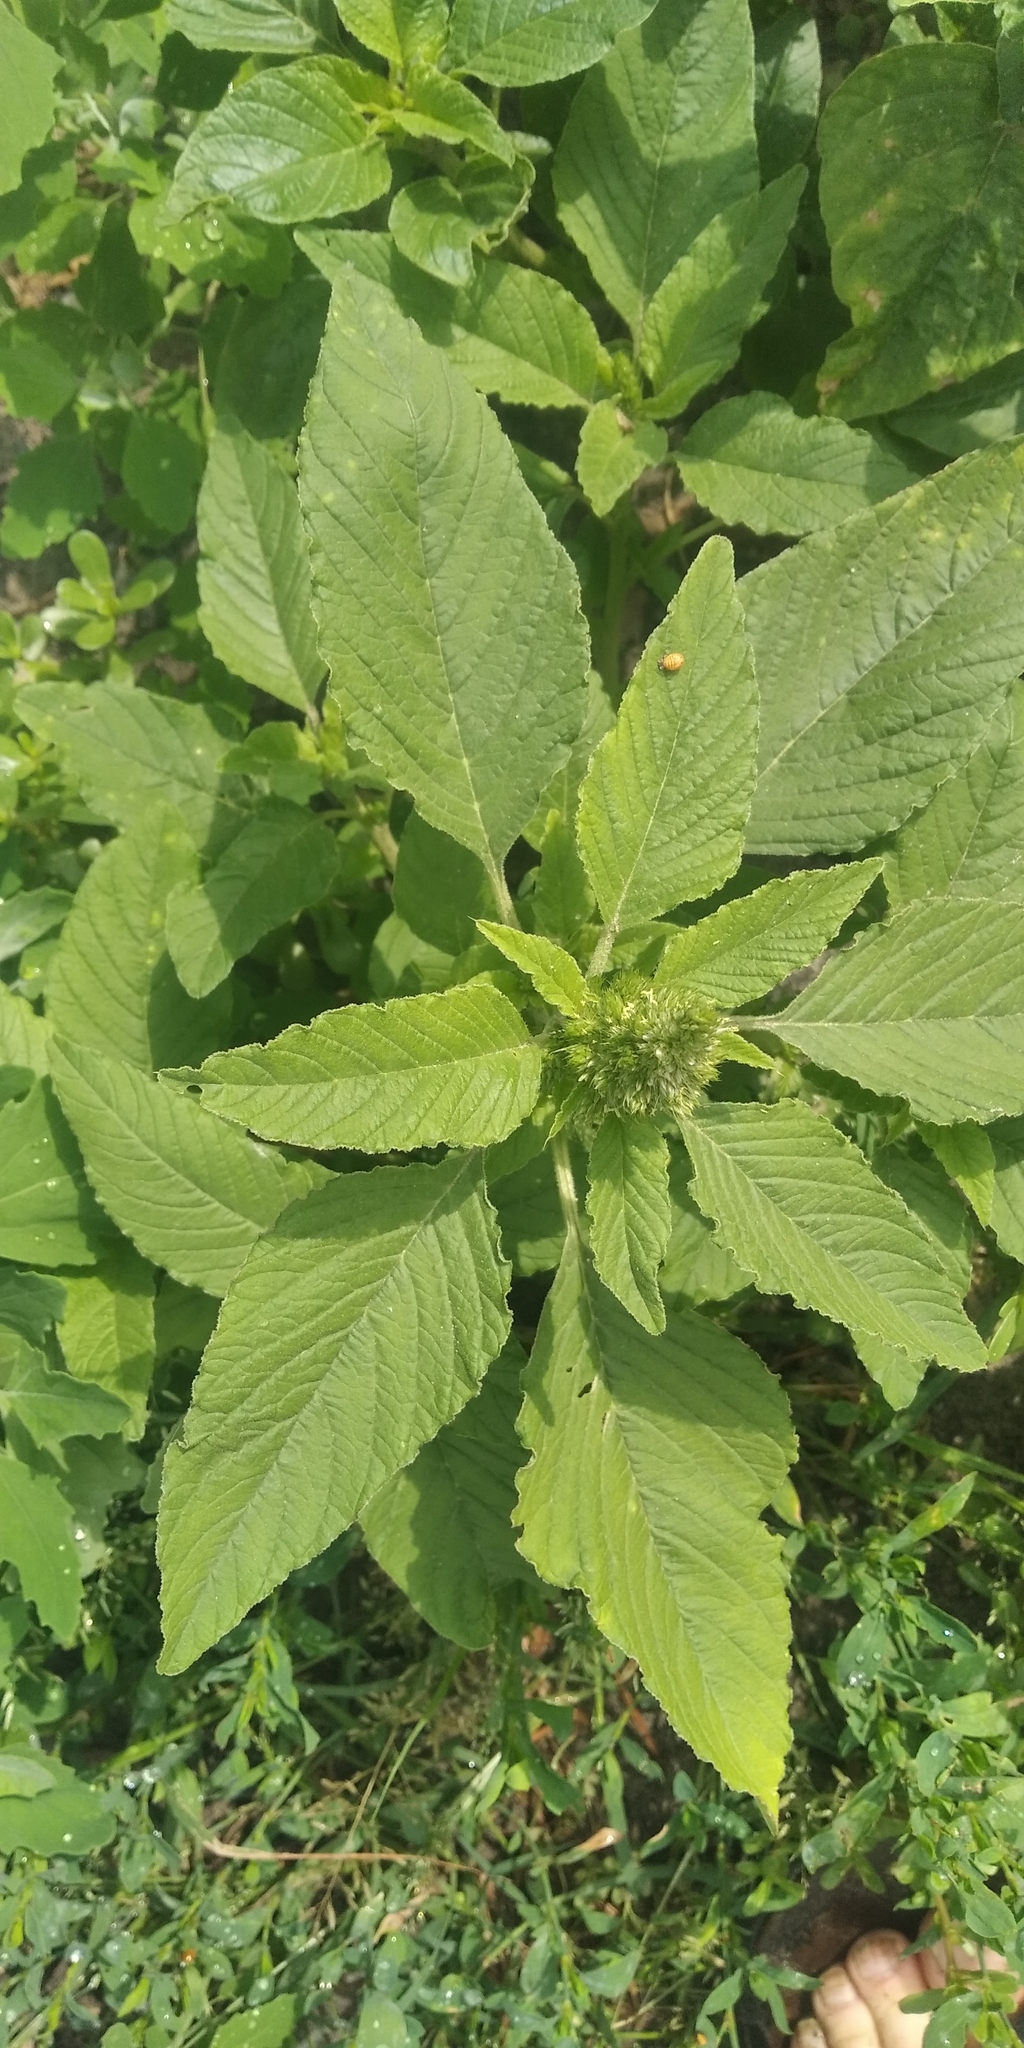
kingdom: Plantae
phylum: Tracheophyta
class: Magnoliopsida
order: Caryophyllales
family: Amaranthaceae
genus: Amaranthus
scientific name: Amaranthus retroflexus
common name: Redroot amaranth
